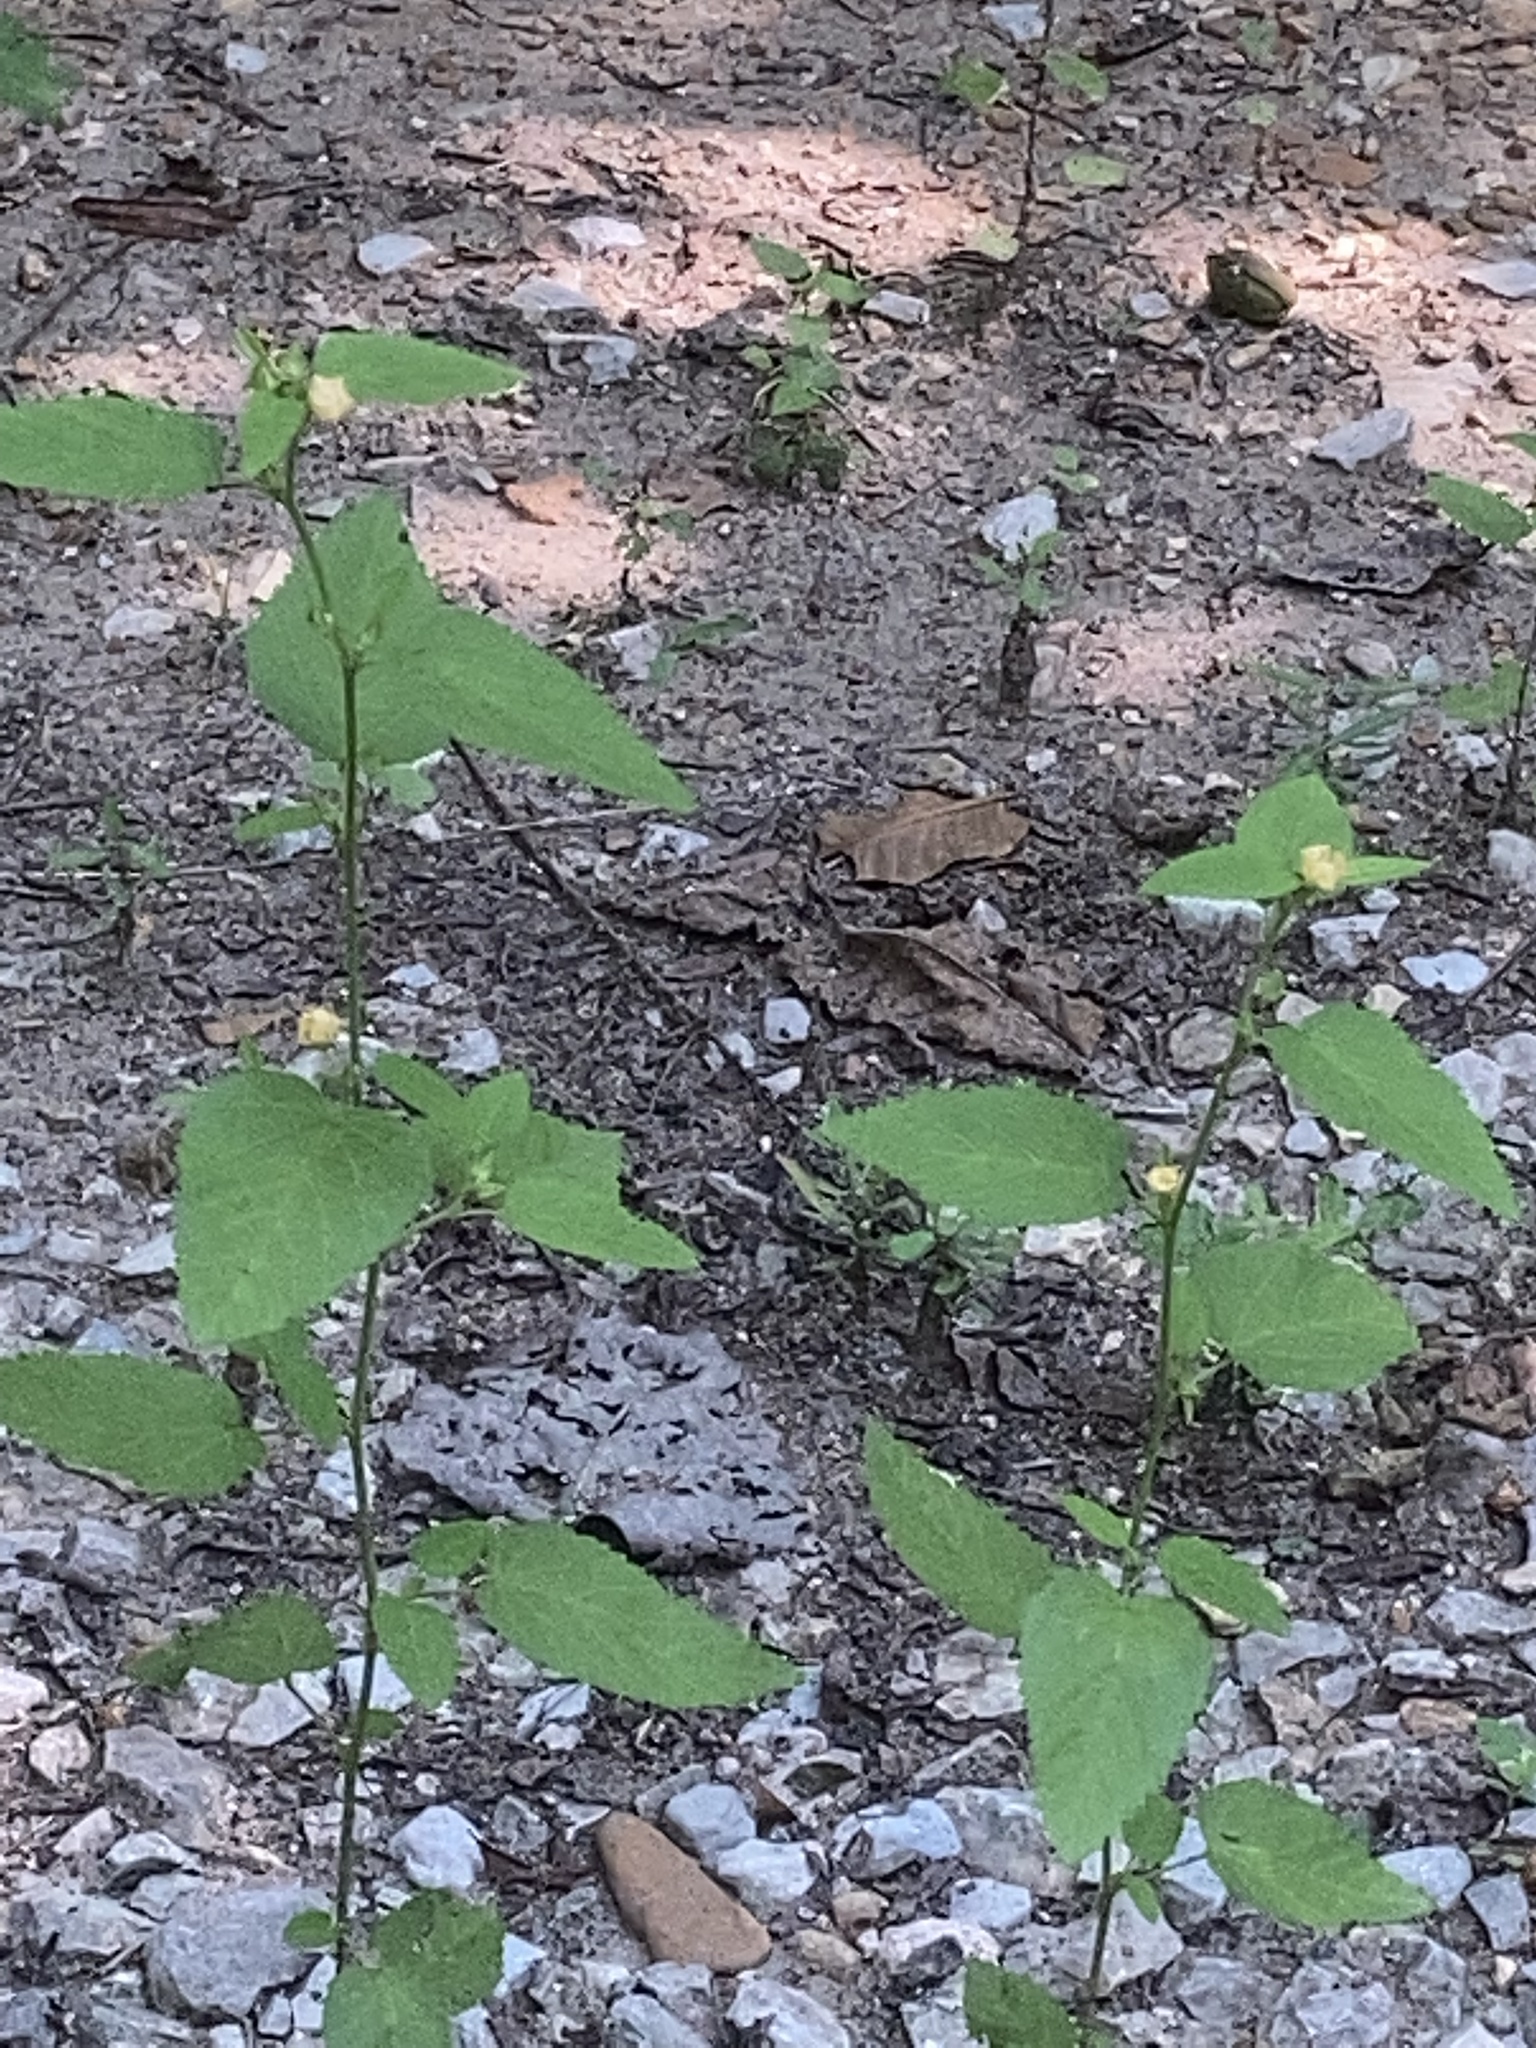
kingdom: Plantae
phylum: Tracheophyta
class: Magnoliopsida
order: Malvales
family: Malvaceae
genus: Sida
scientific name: Sida spinosa
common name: Prickly fanpetals
